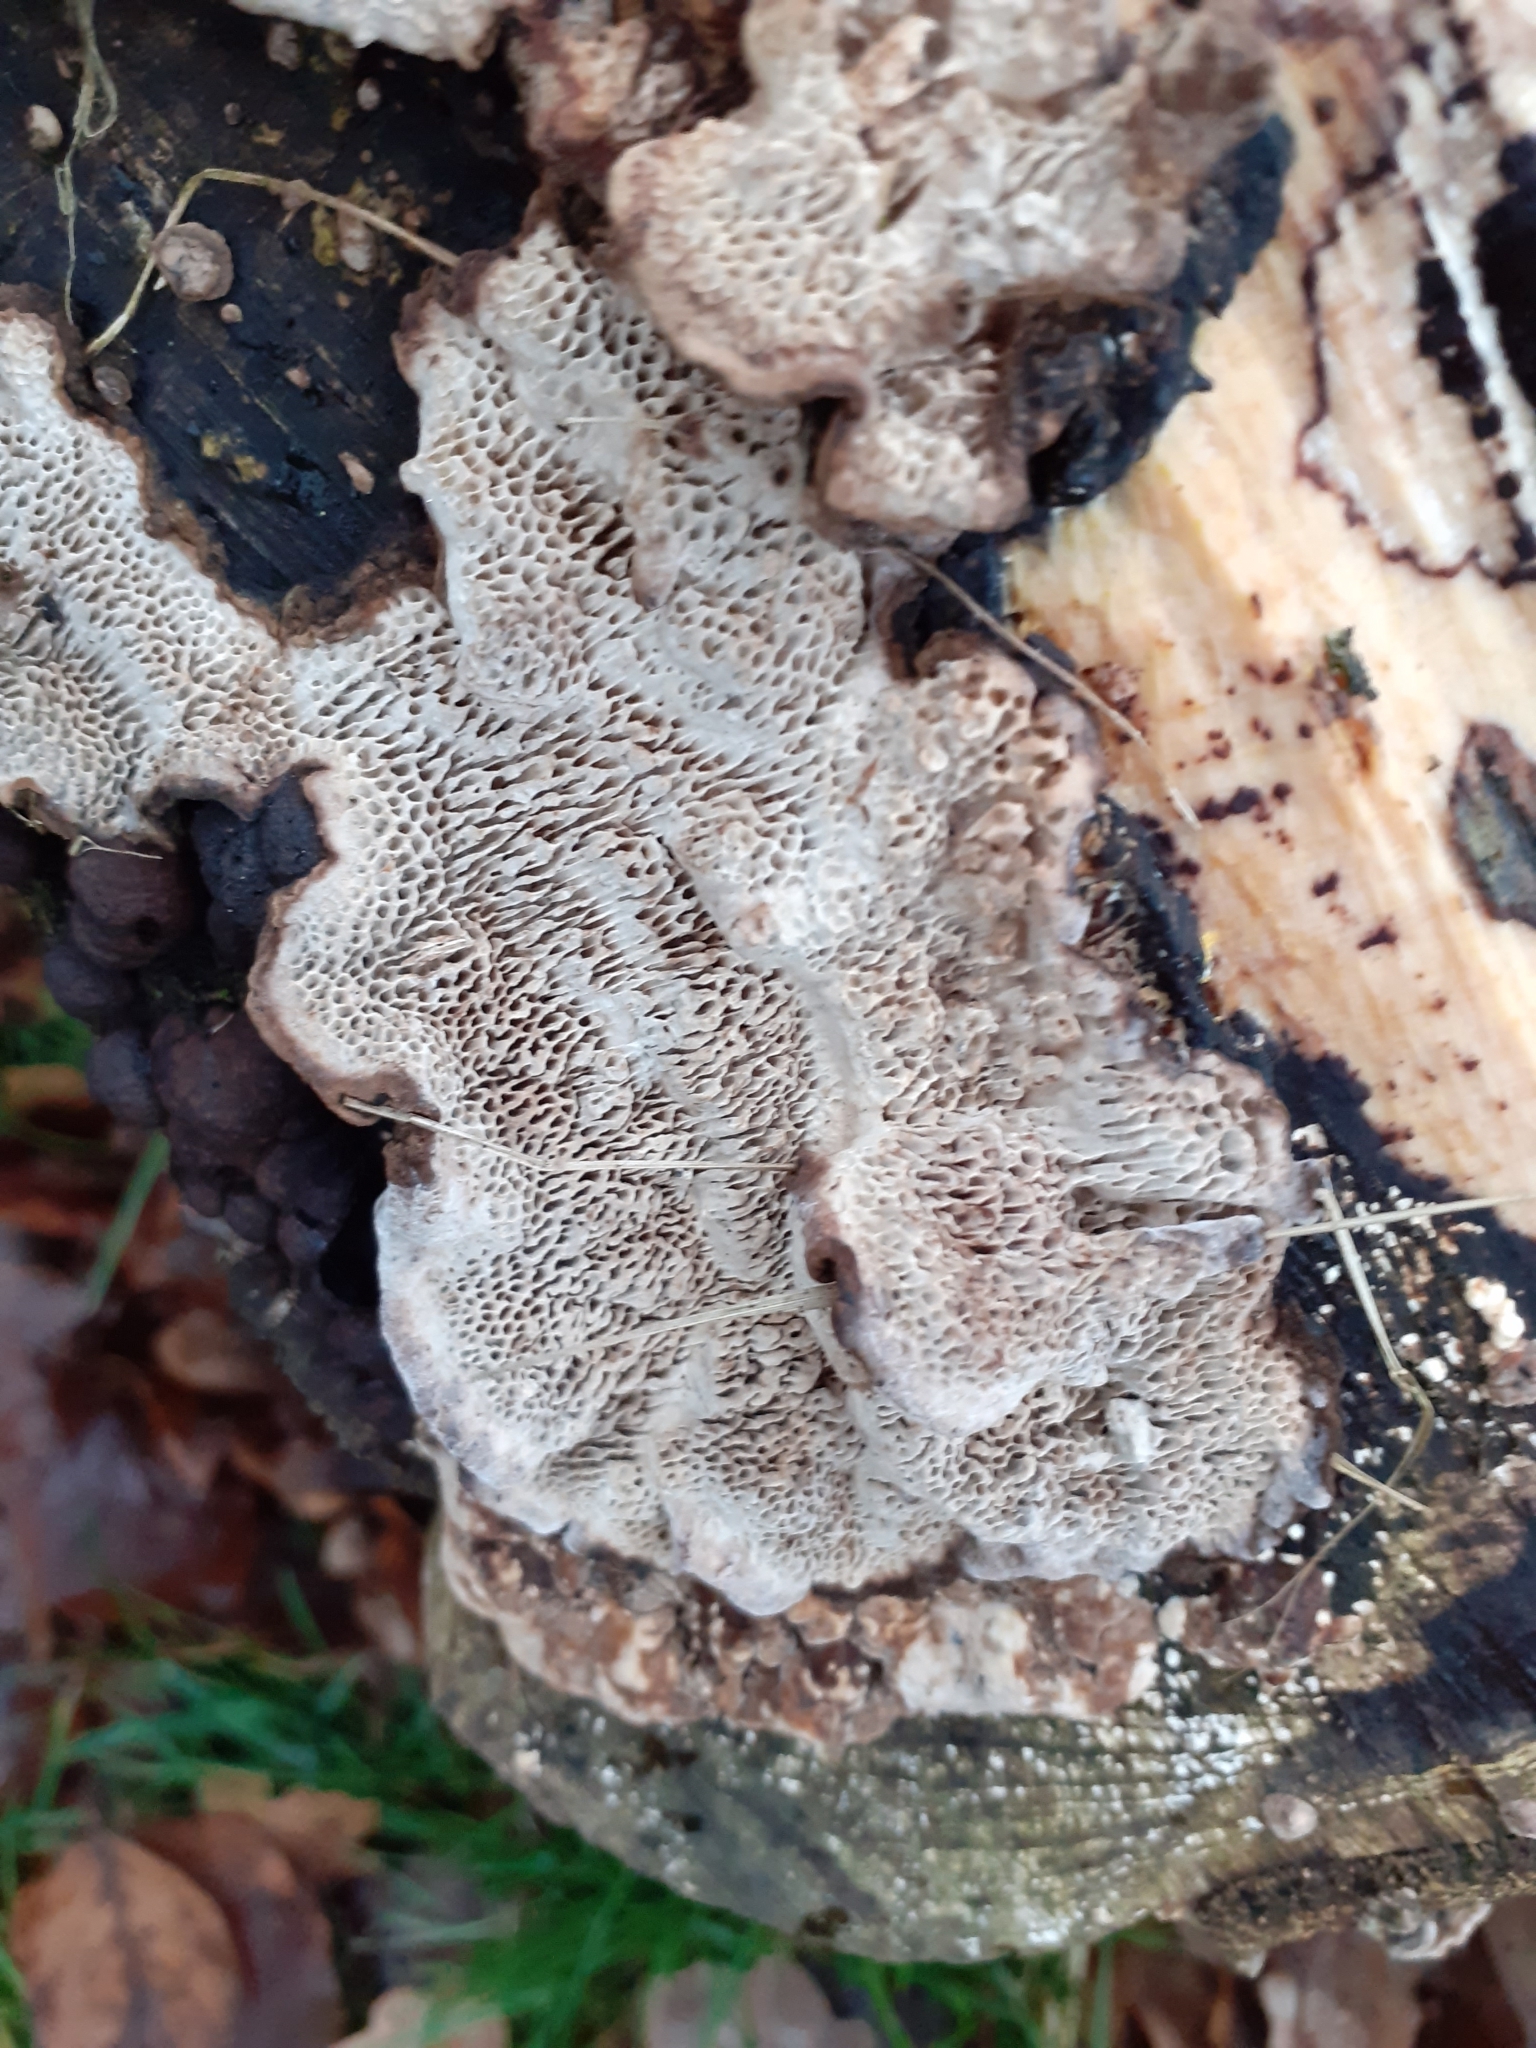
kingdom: Fungi
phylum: Basidiomycota
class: Agaricomycetes
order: Polyporales
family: Polyporaceae
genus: Podofomes
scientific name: Podofomes mollis
